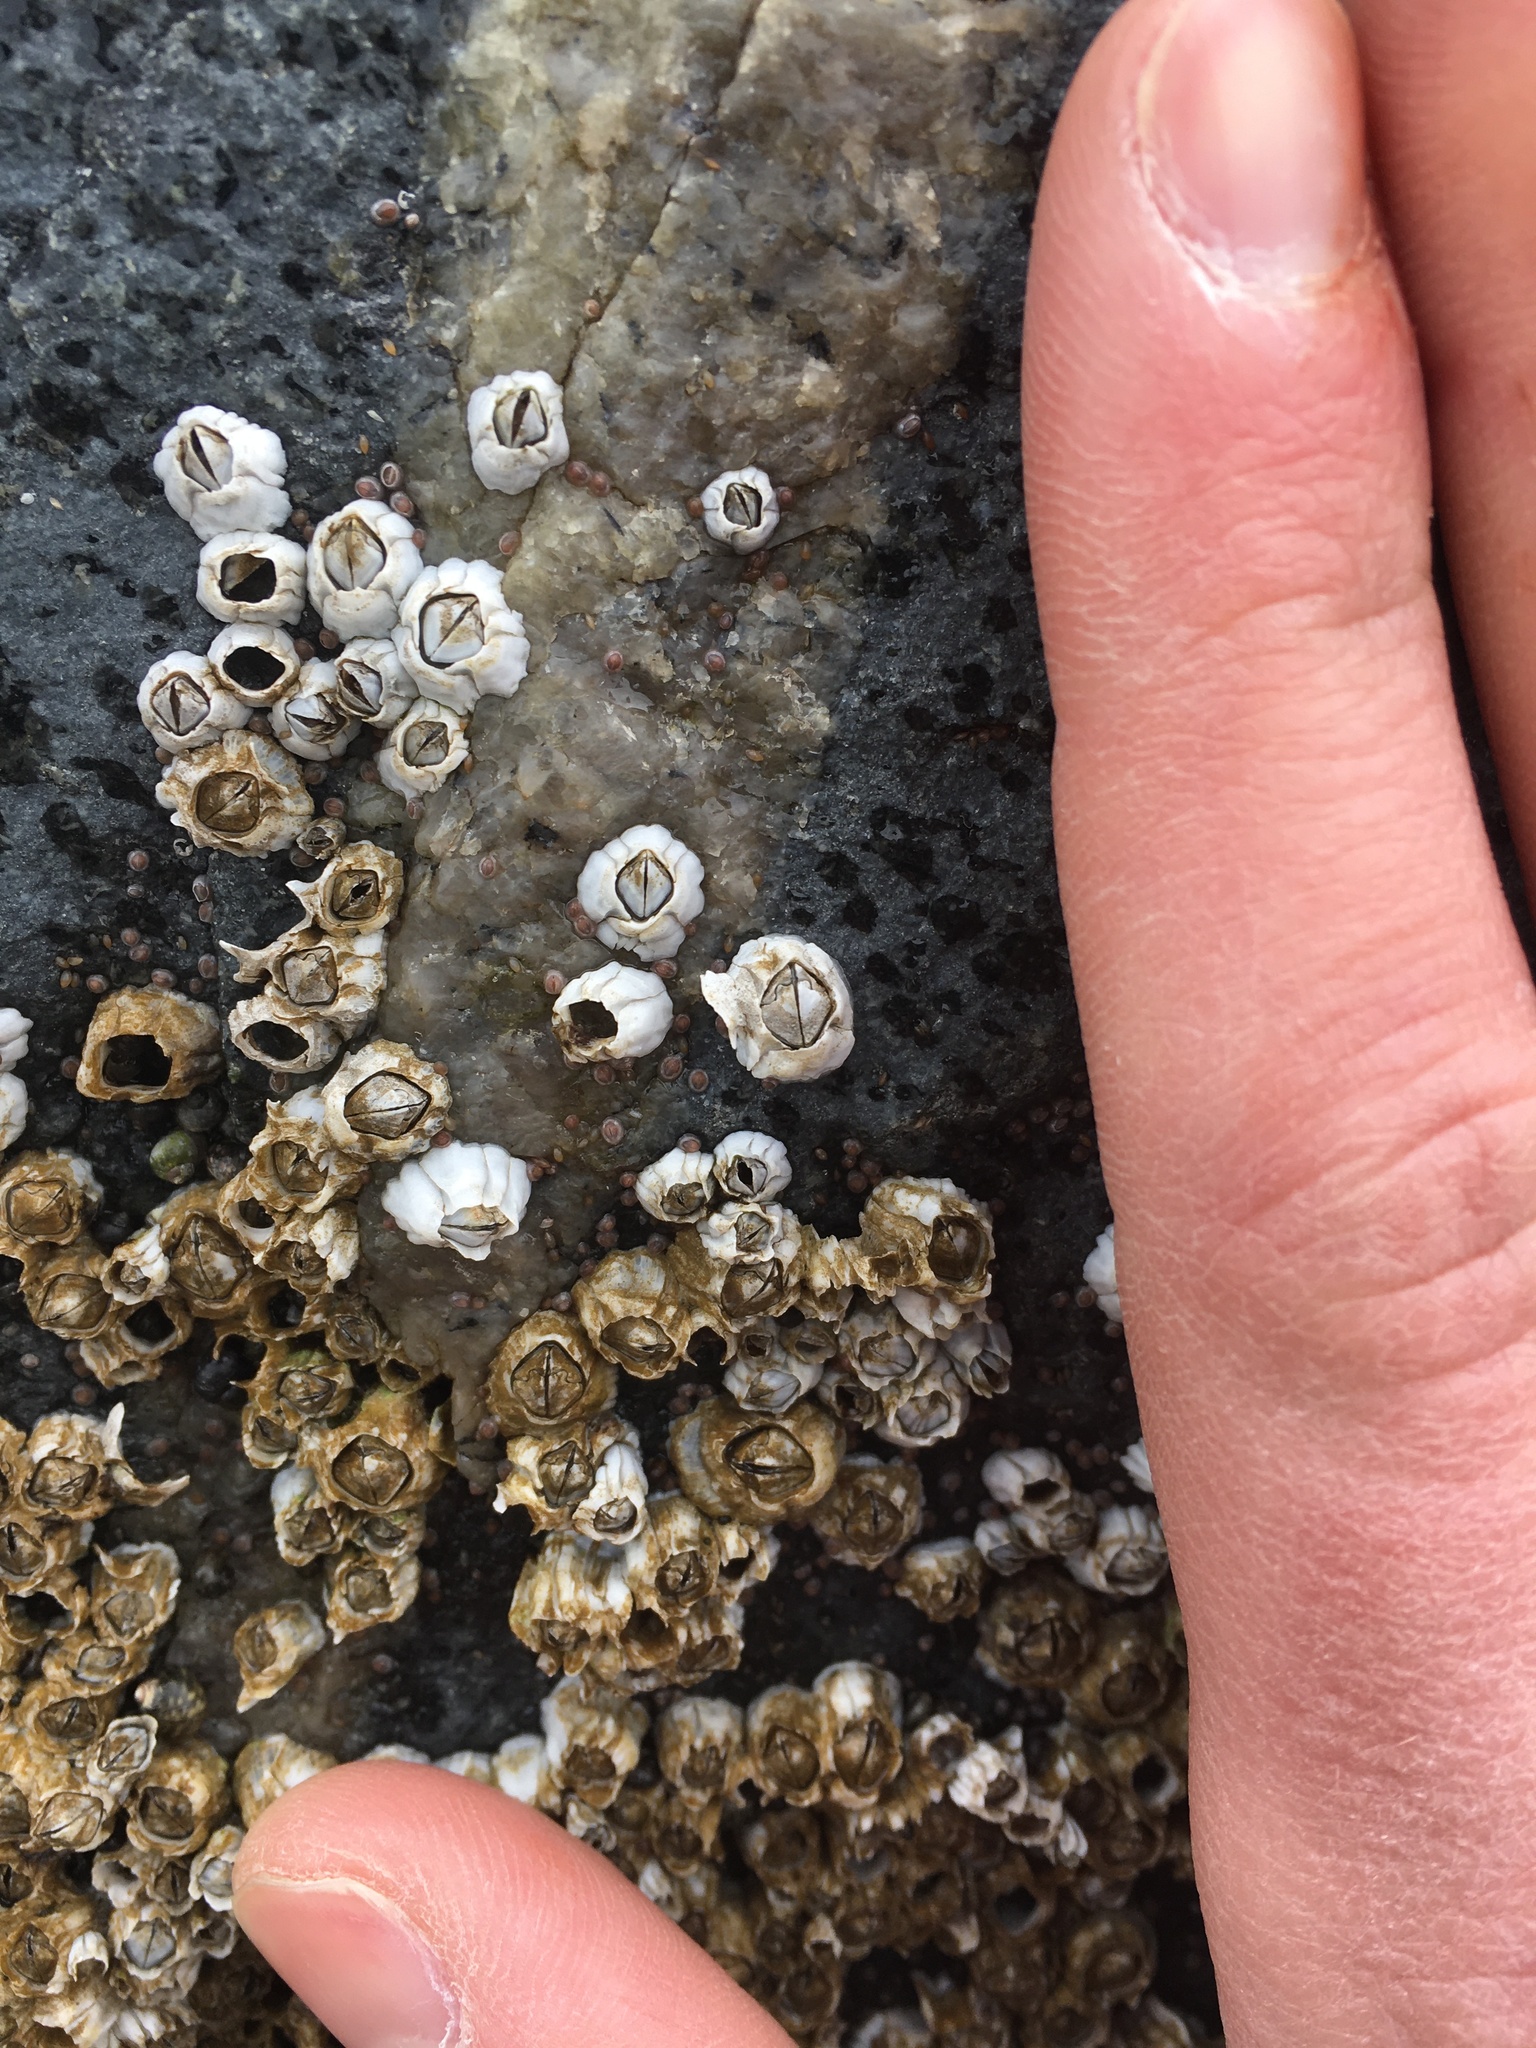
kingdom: Animalia
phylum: Arthropoda
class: Maxillopoda
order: Sessilia
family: Archaeobalanidae
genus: Semibalanus
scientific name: Semibalanus balanoides
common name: Acorn barnacle
